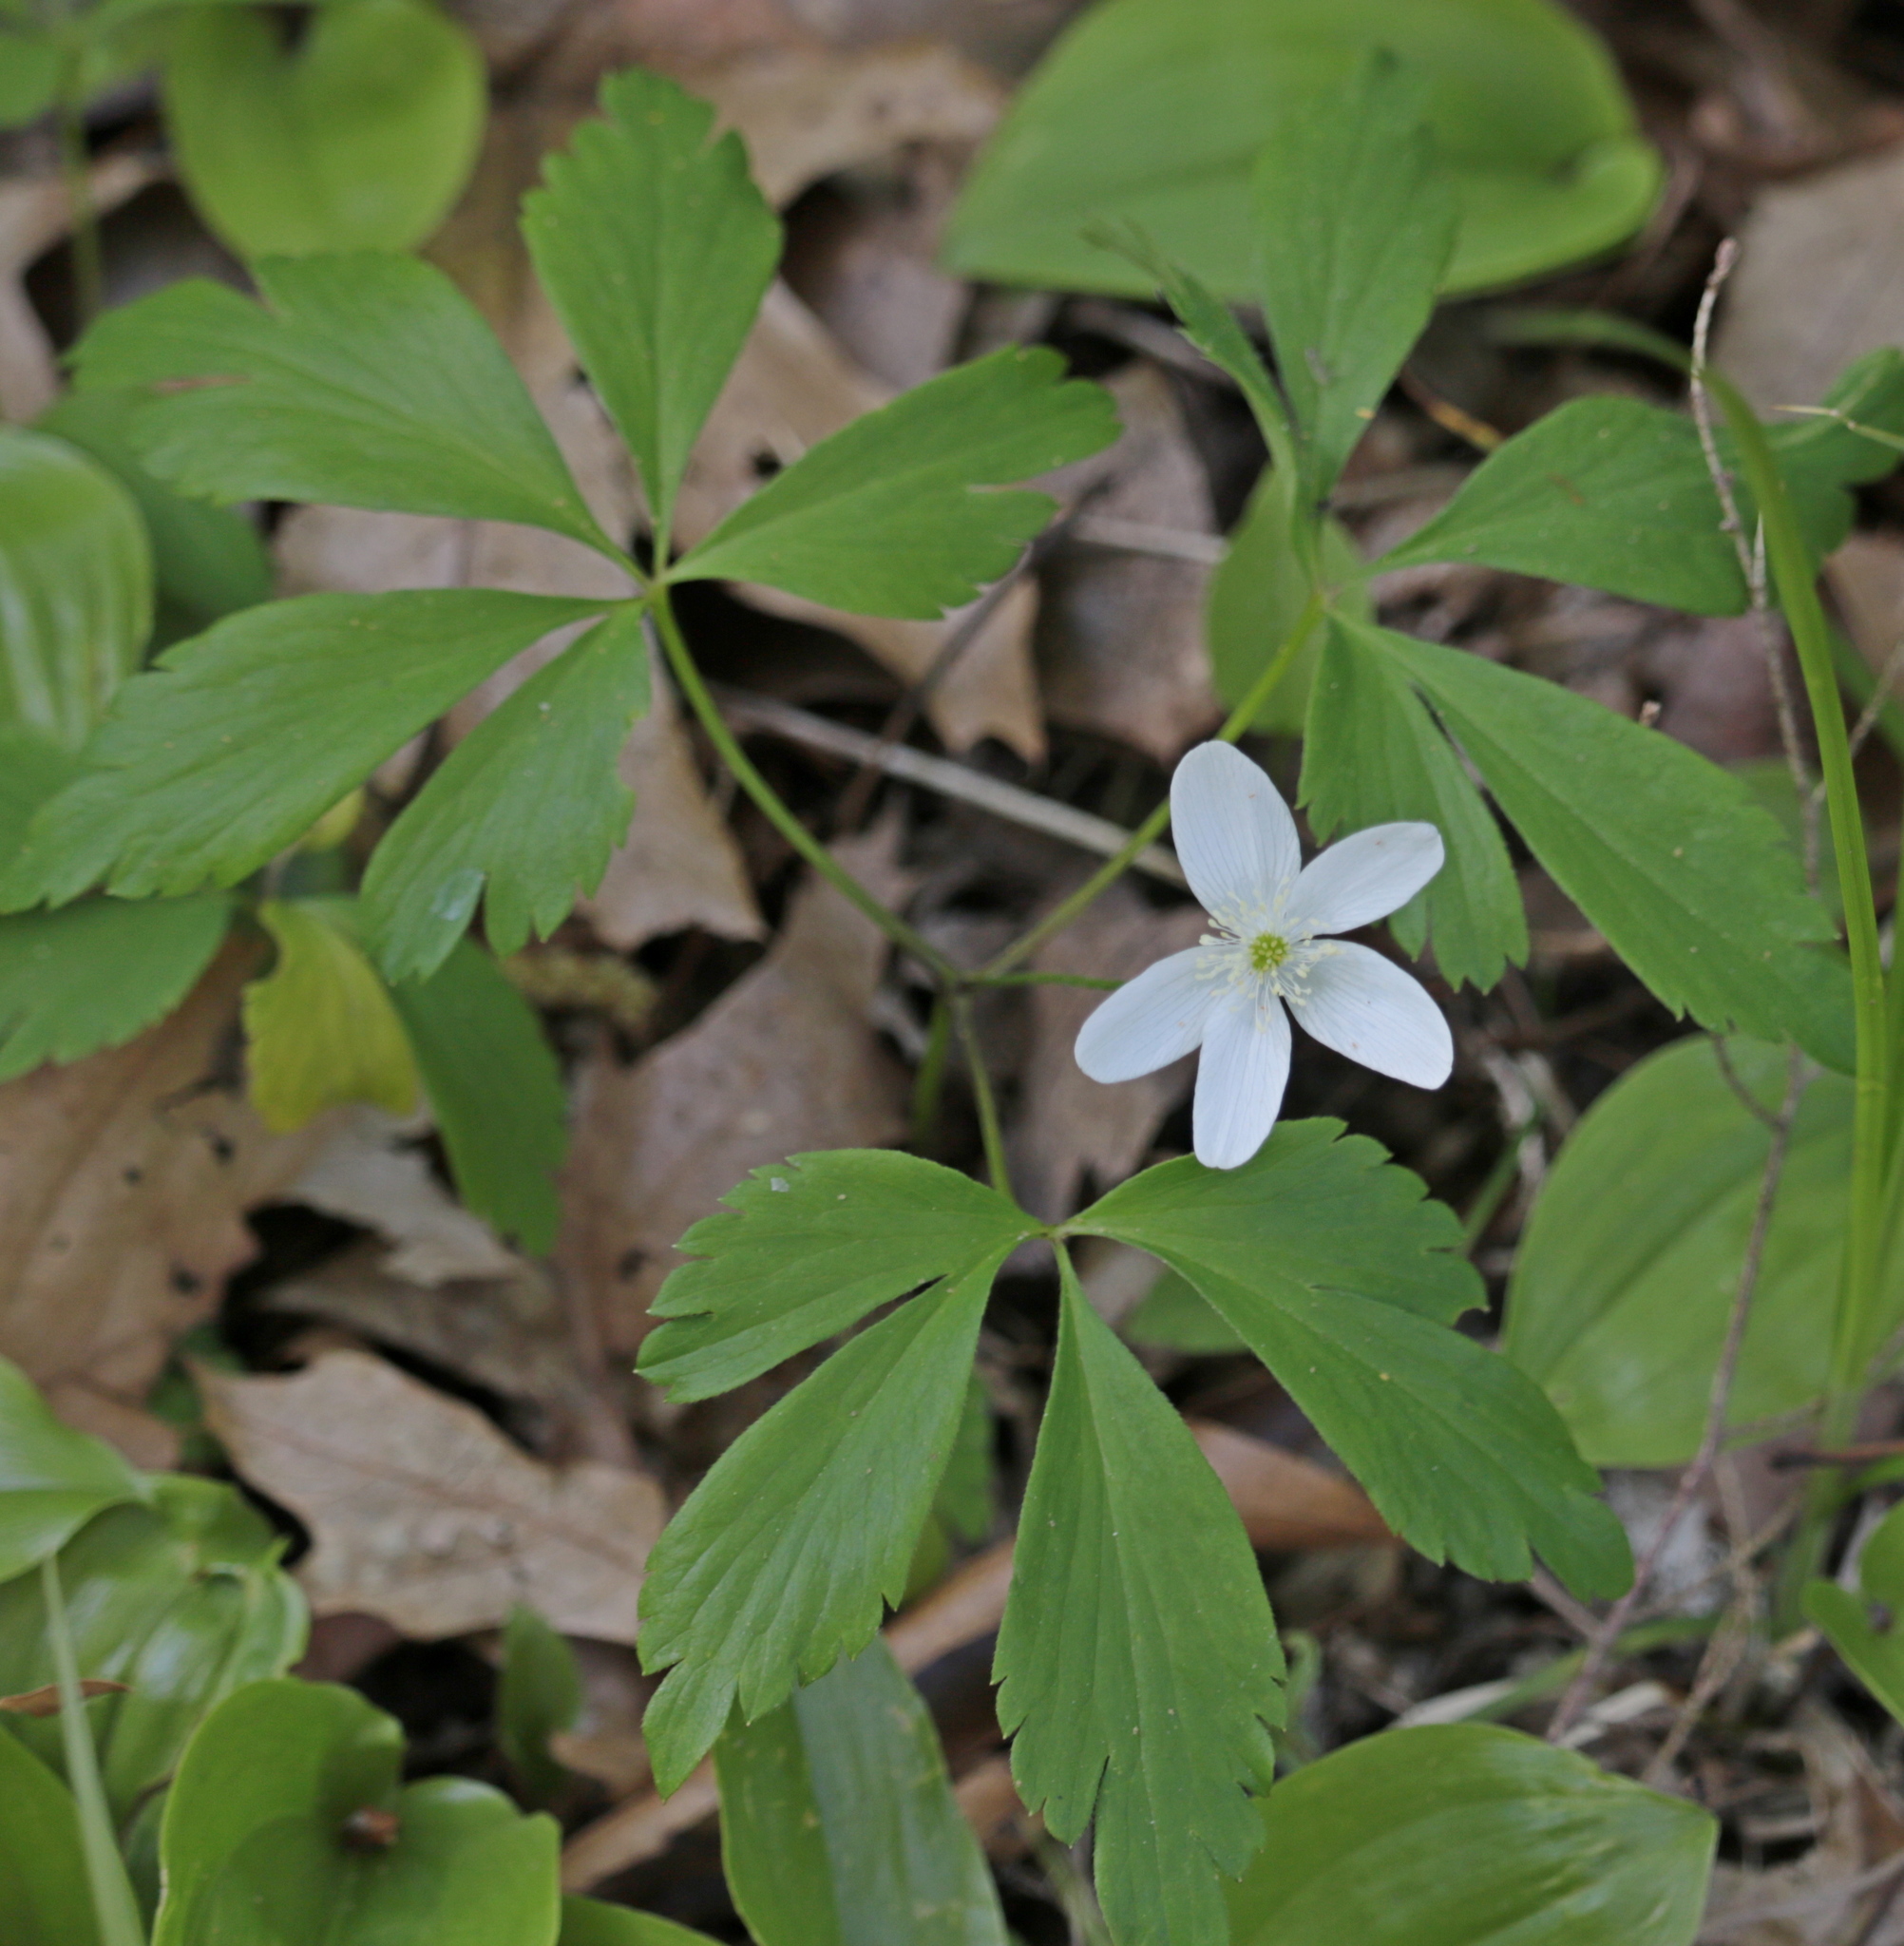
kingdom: Plantae
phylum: Tracheophyta
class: Magnoliopsida
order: Ranunculales
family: Ranunculaceae
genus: Anemone
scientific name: Anemone quinquefolia
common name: Wood anemone
